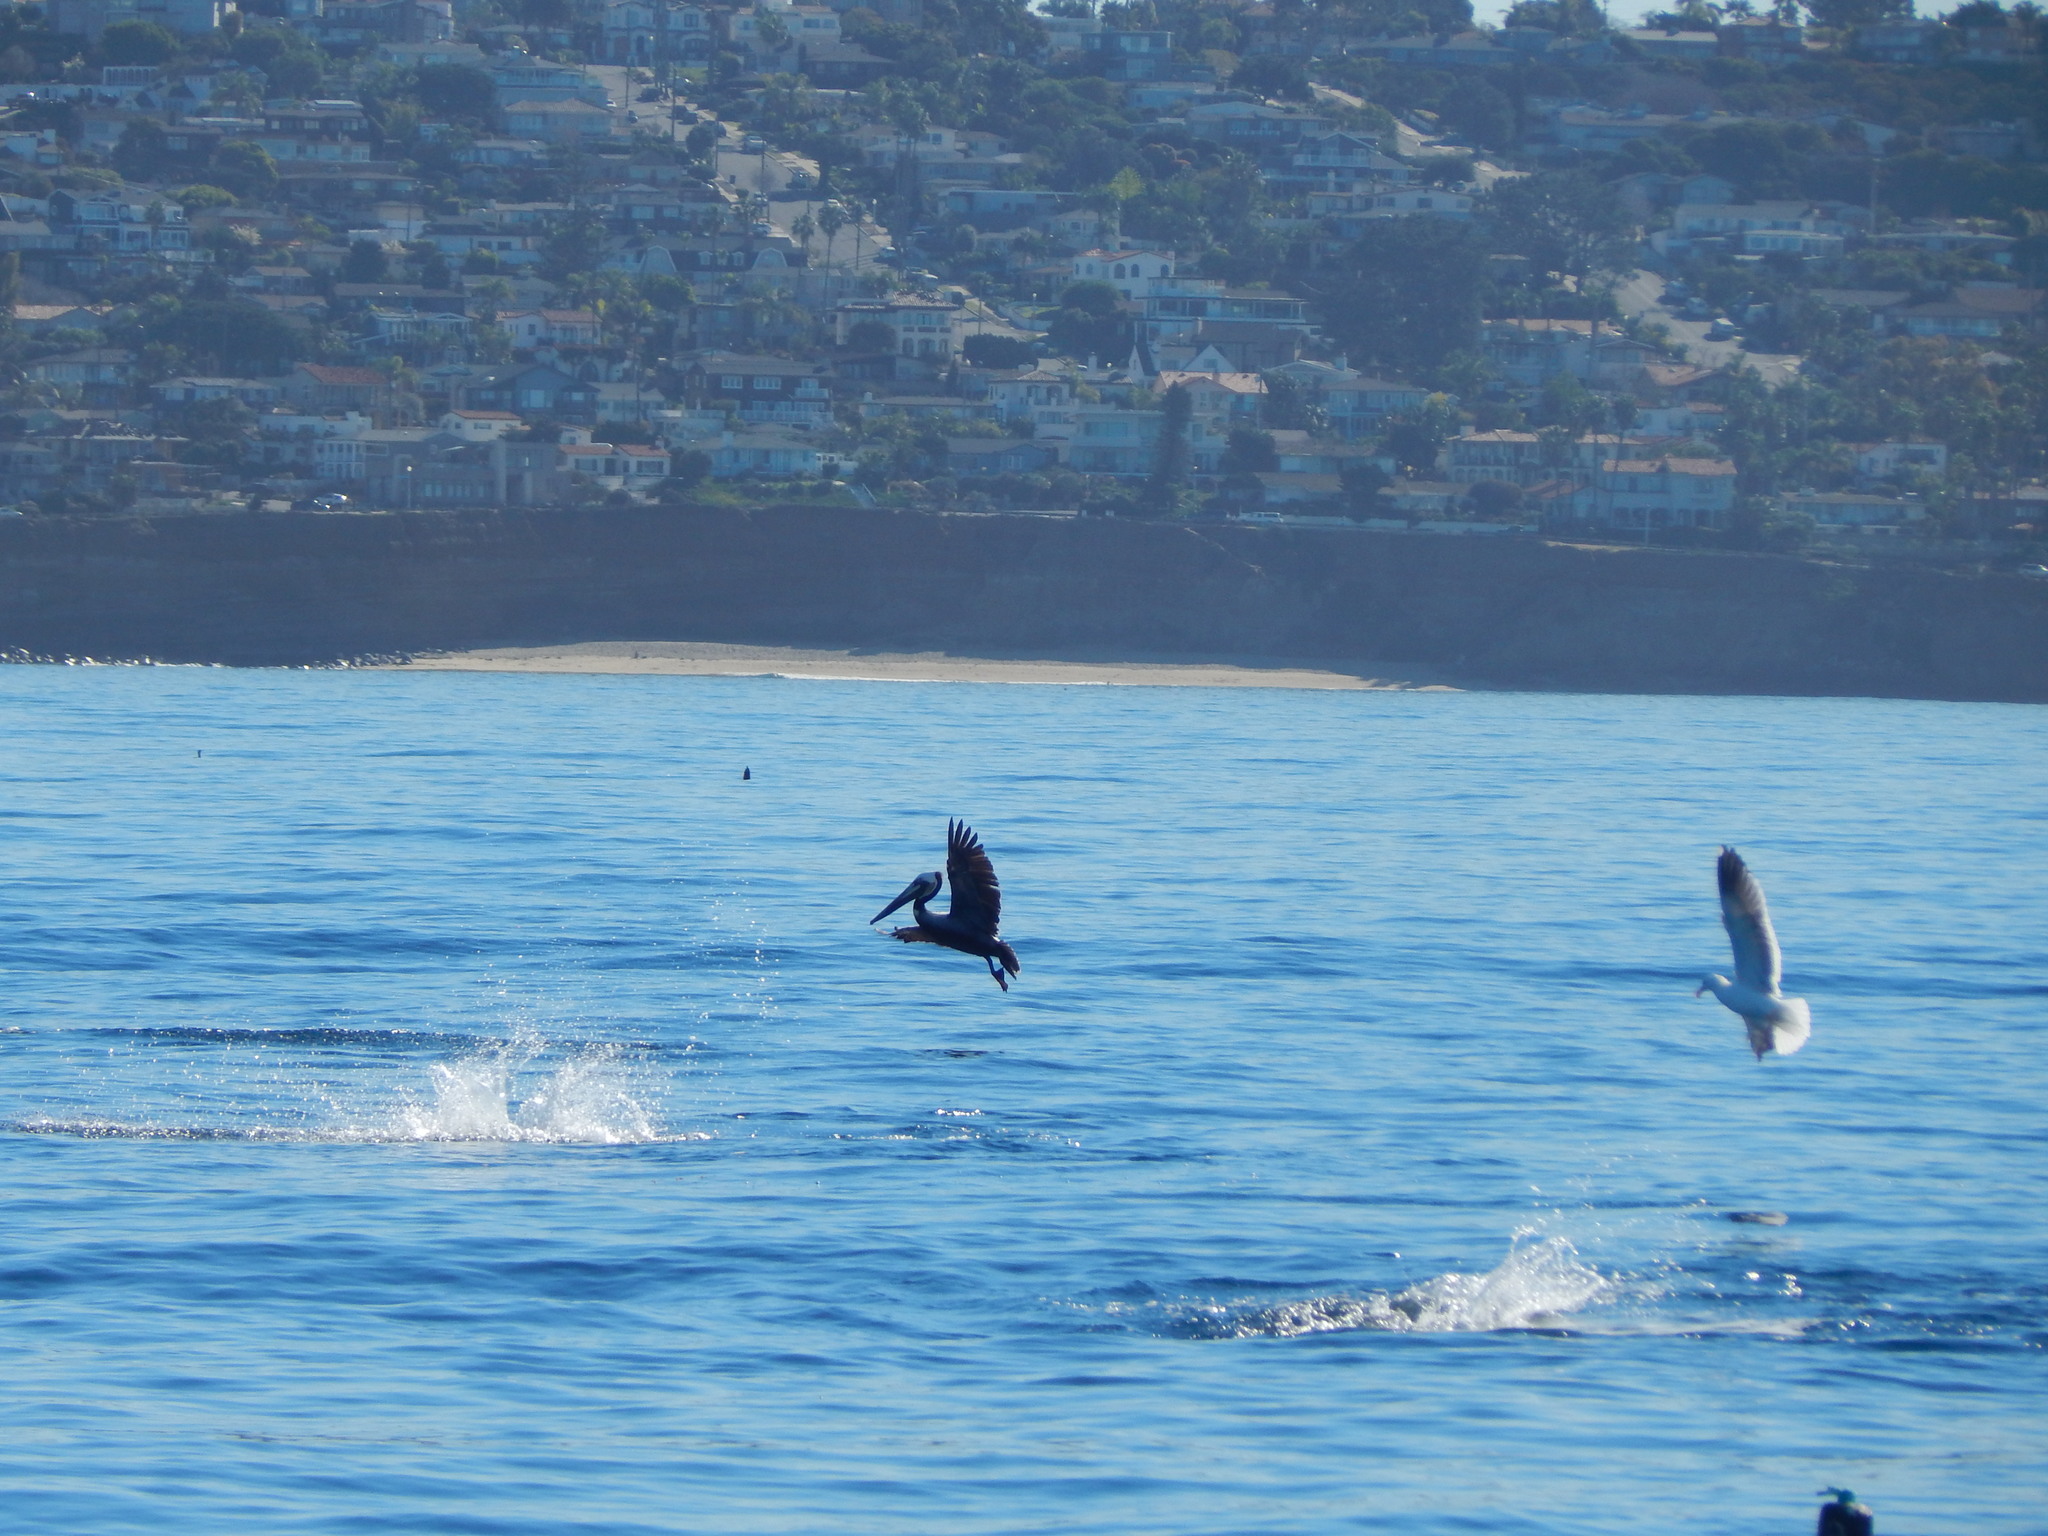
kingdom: Animalia
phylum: Chordata
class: Aves
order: Pelecaniformes
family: Pelecanidae
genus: Pelecanus
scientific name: Pelecanus occidentalis
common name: Brown pelican
